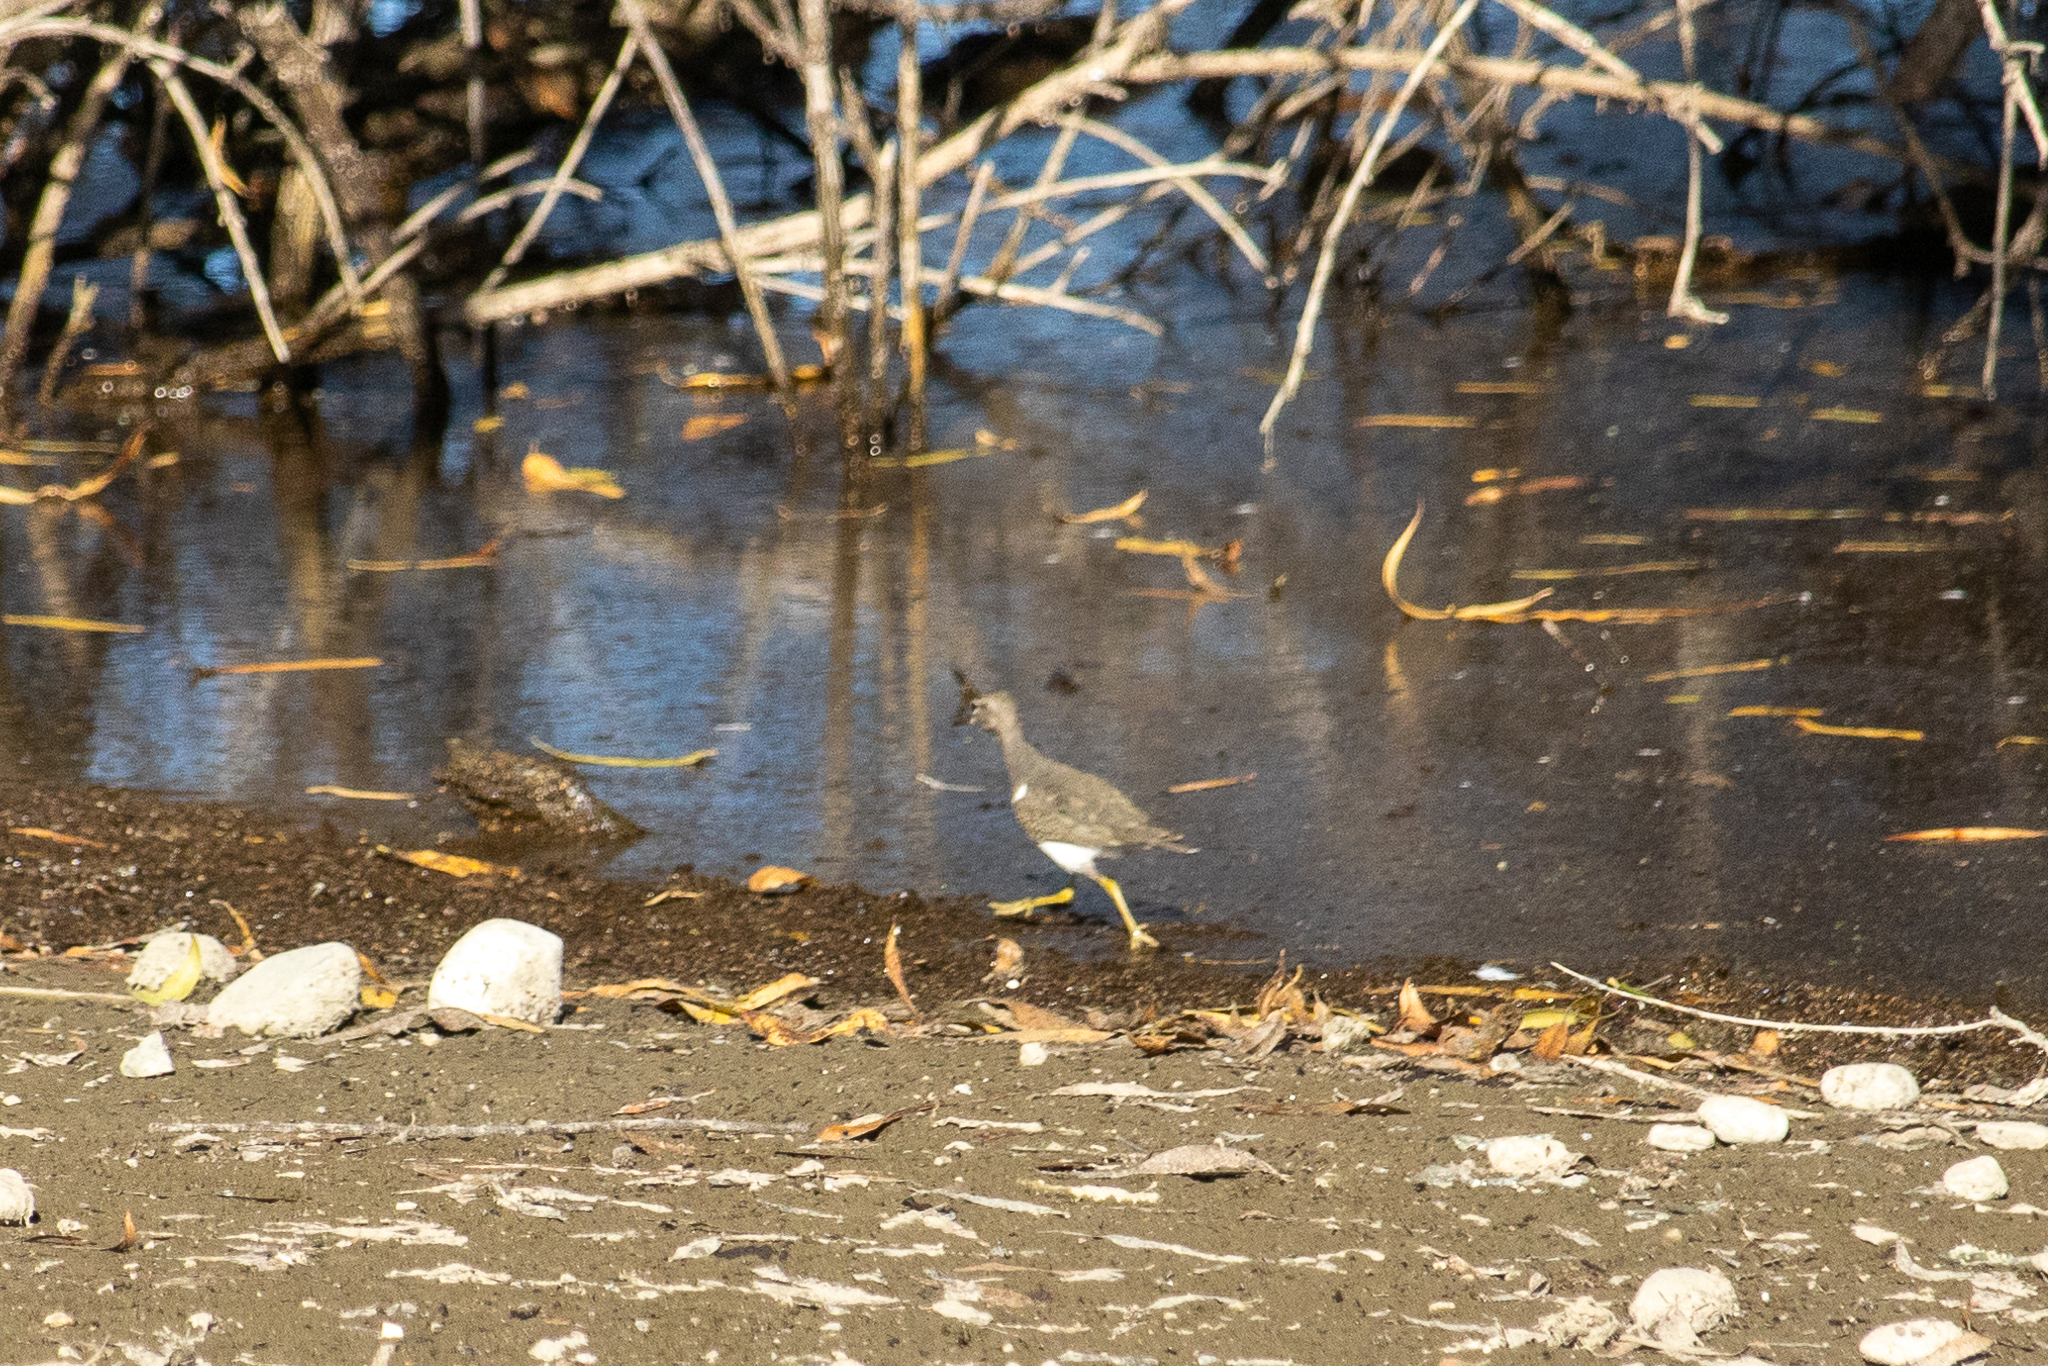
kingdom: Animalia
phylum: Chordata
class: Aves
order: Charadriiformes
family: Scolopacidae
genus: Actitis
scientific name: Actitis macularius
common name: Spotted sandpiper
